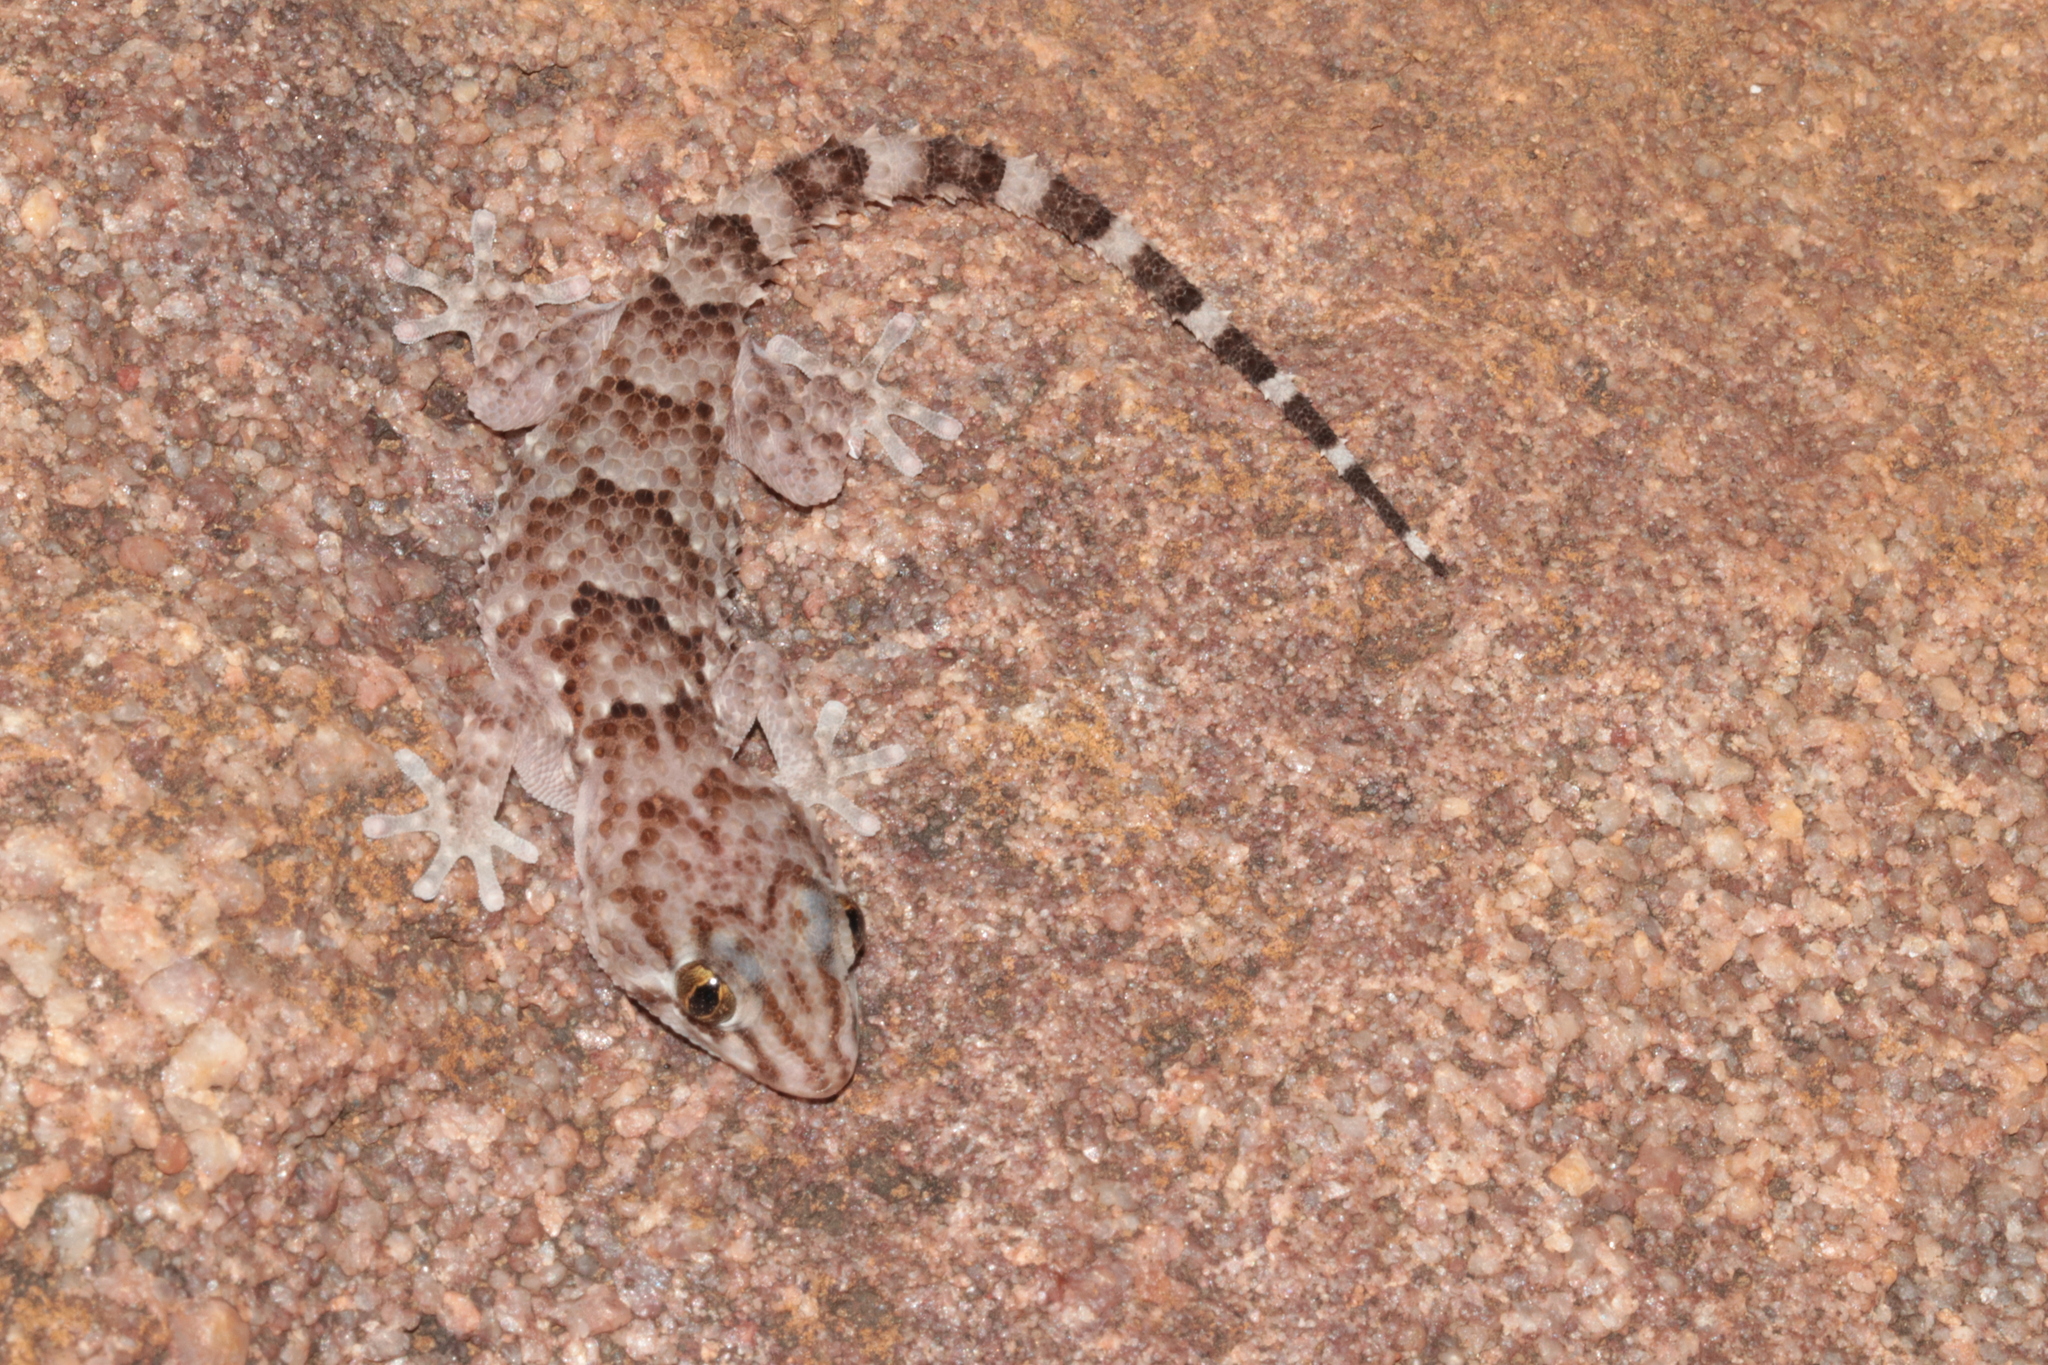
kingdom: Animalia
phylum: Chordata
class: Squamata
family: Gekkonidae
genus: Chondrodactylus
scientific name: Chondrodactylus turneri
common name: Turner’s gecko
